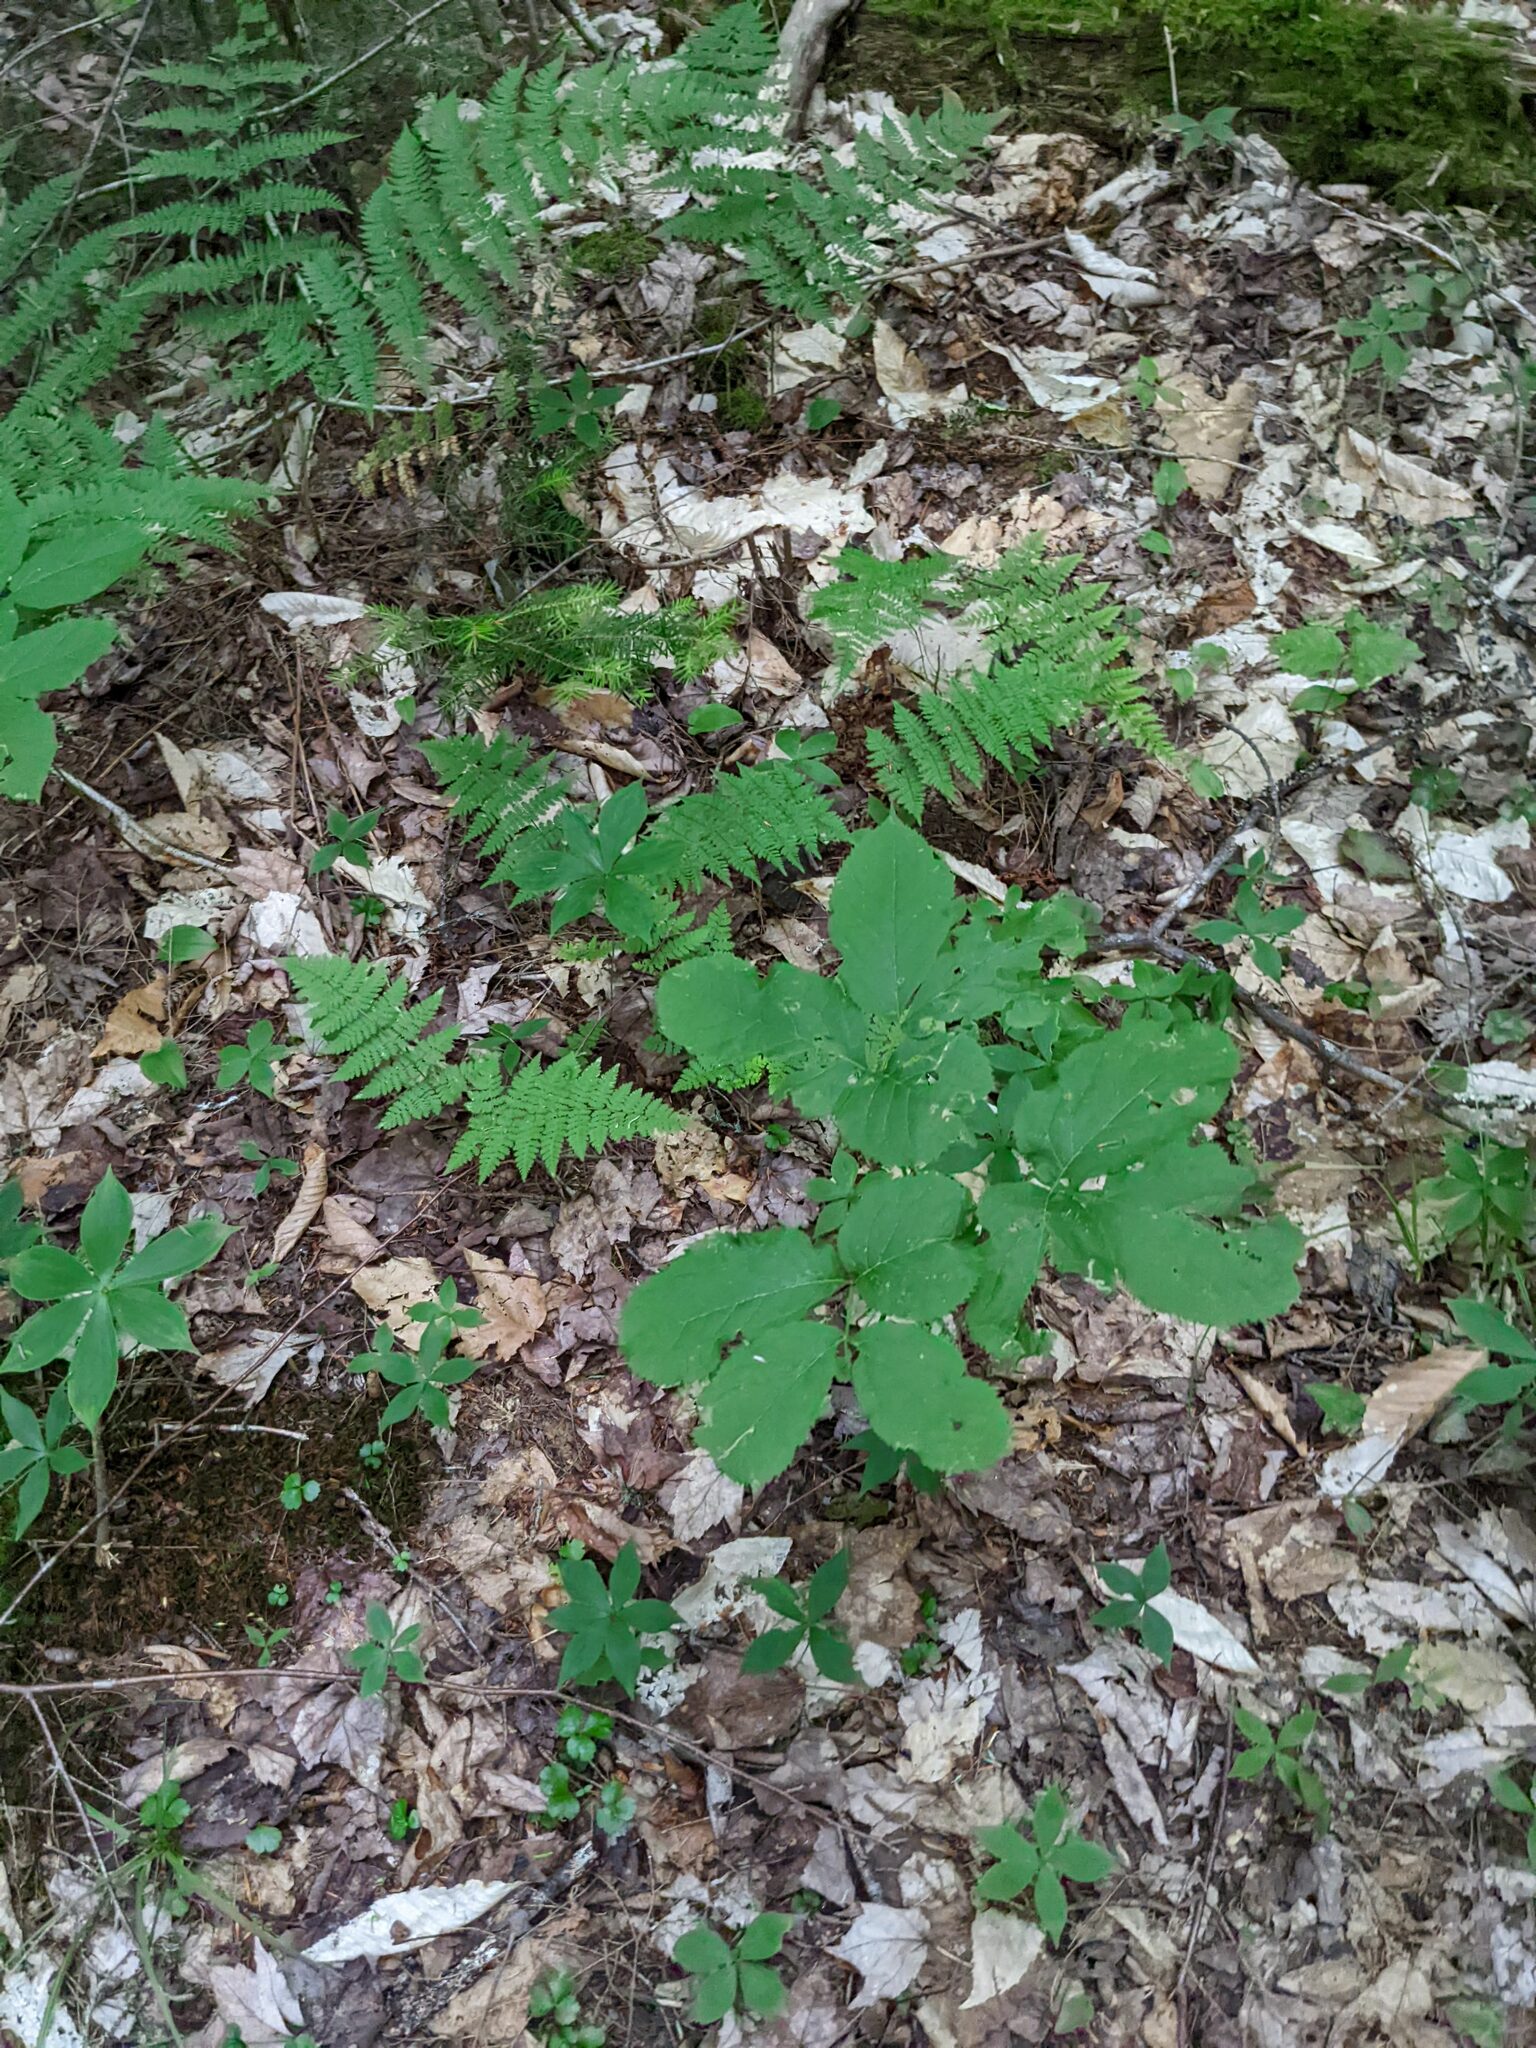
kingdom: Plantae
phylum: Tracheophyta
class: Magnoliopsida
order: Apiales
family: Araliaceae
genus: Aralia
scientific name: Aralia nudicaulis
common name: Wild sarsaparilla
